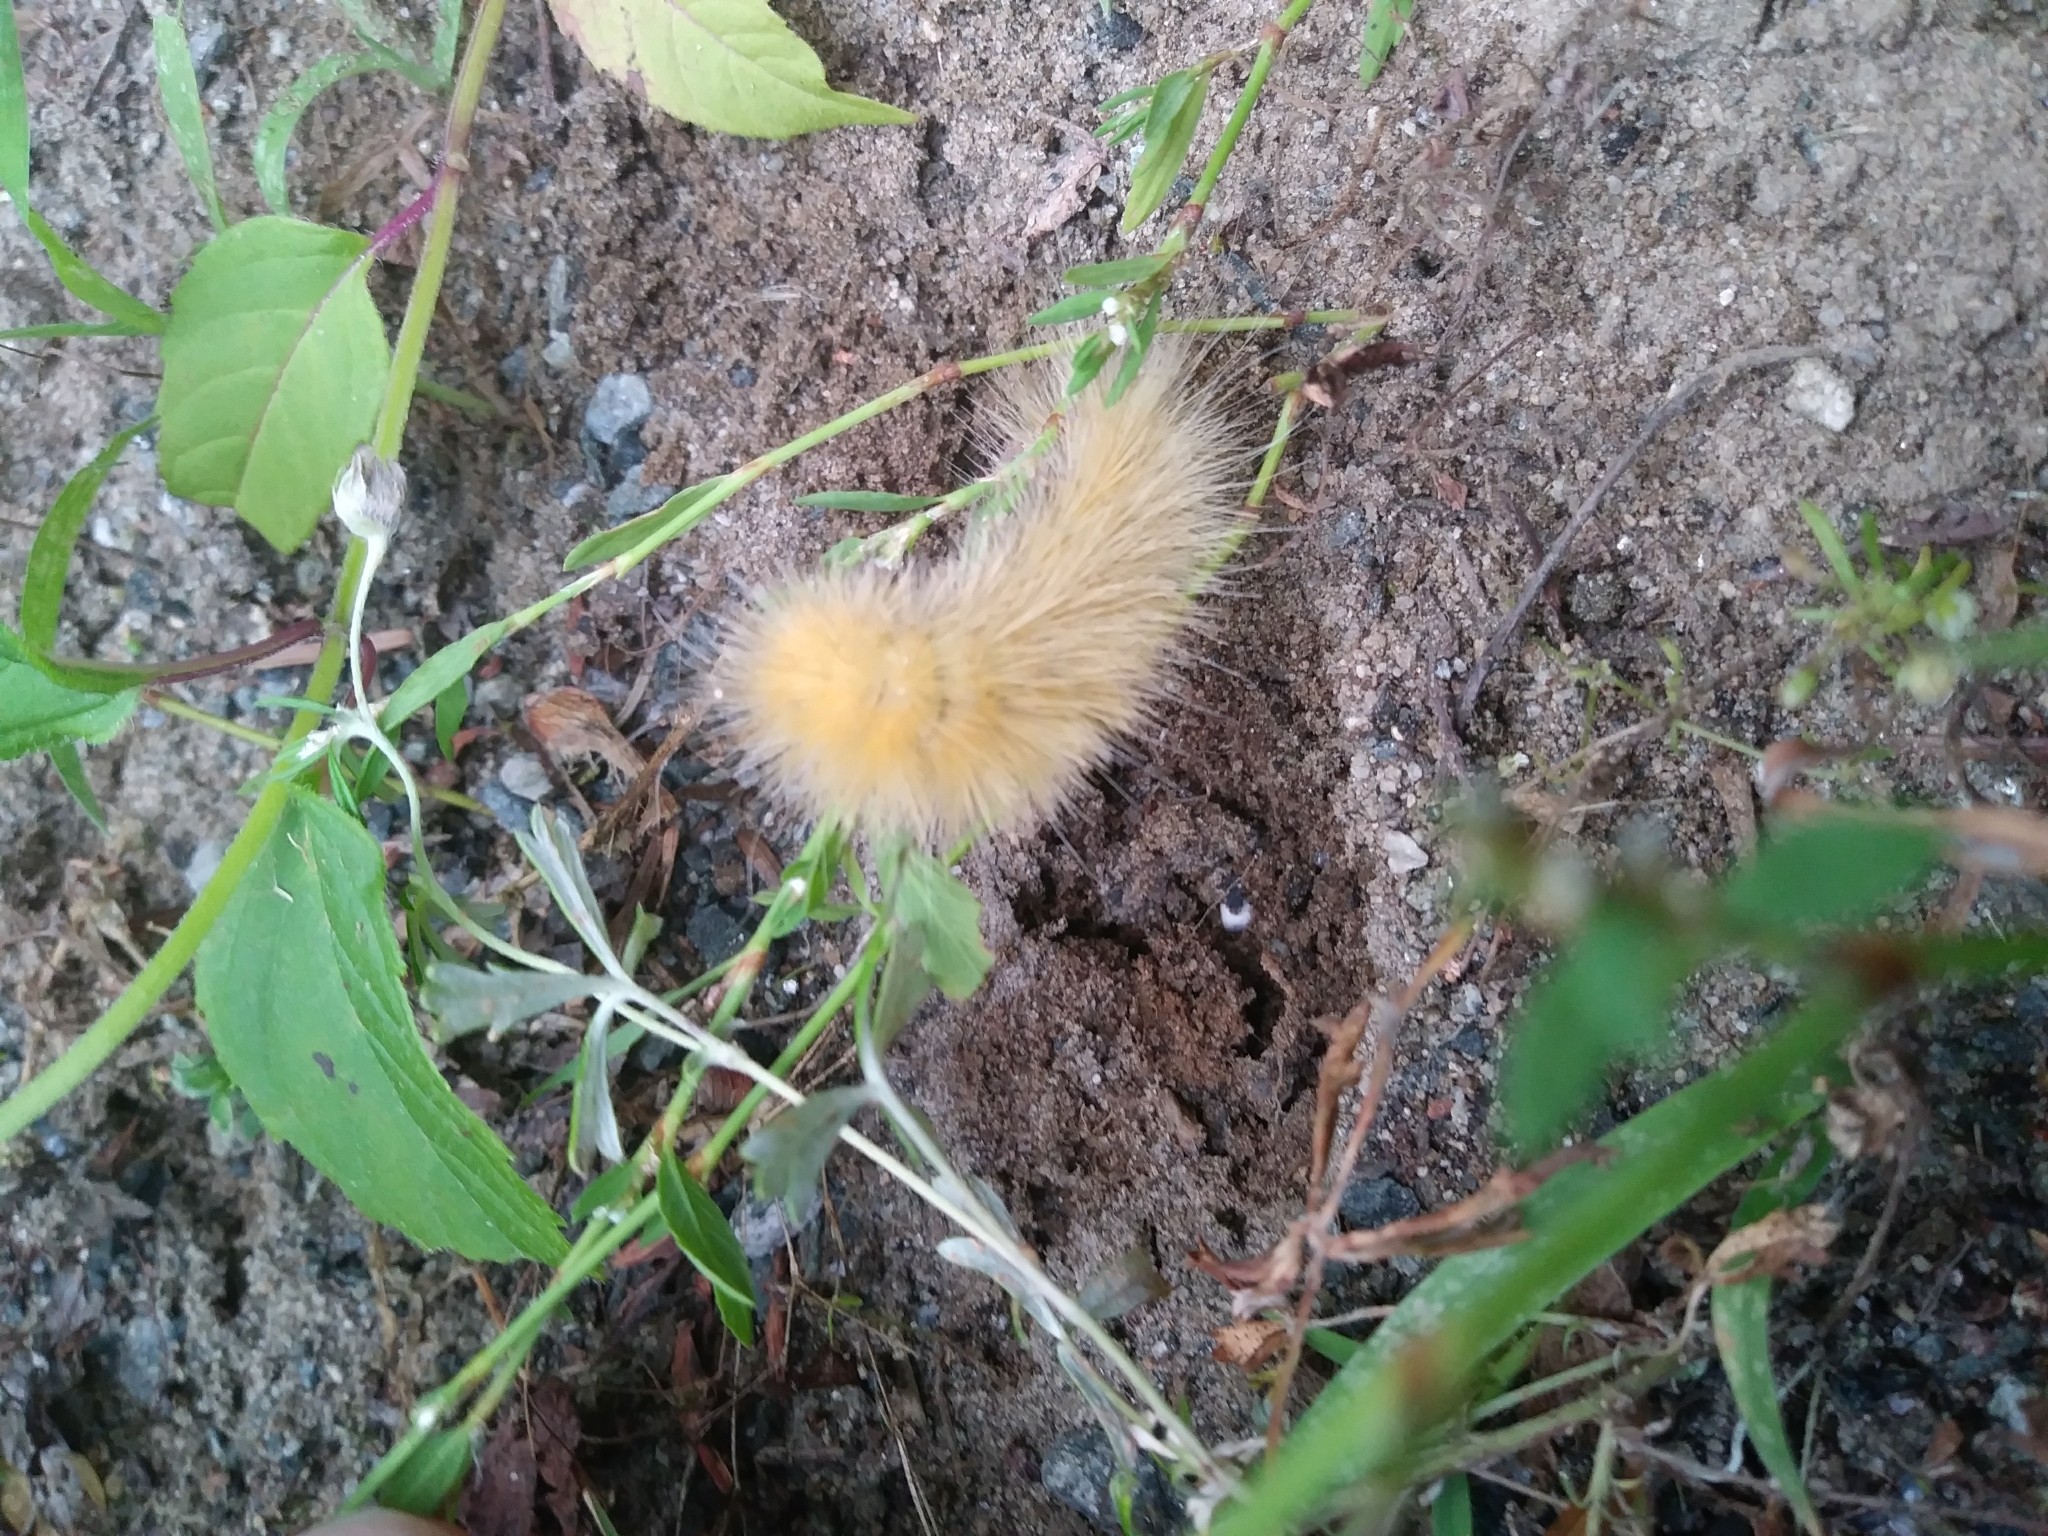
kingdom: Animalia
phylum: Arthropoda
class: Insecta
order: Lepidoptera
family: Erebidae
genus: Spilosoma
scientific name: Spilosoma virginica
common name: Virginia tiger moth
